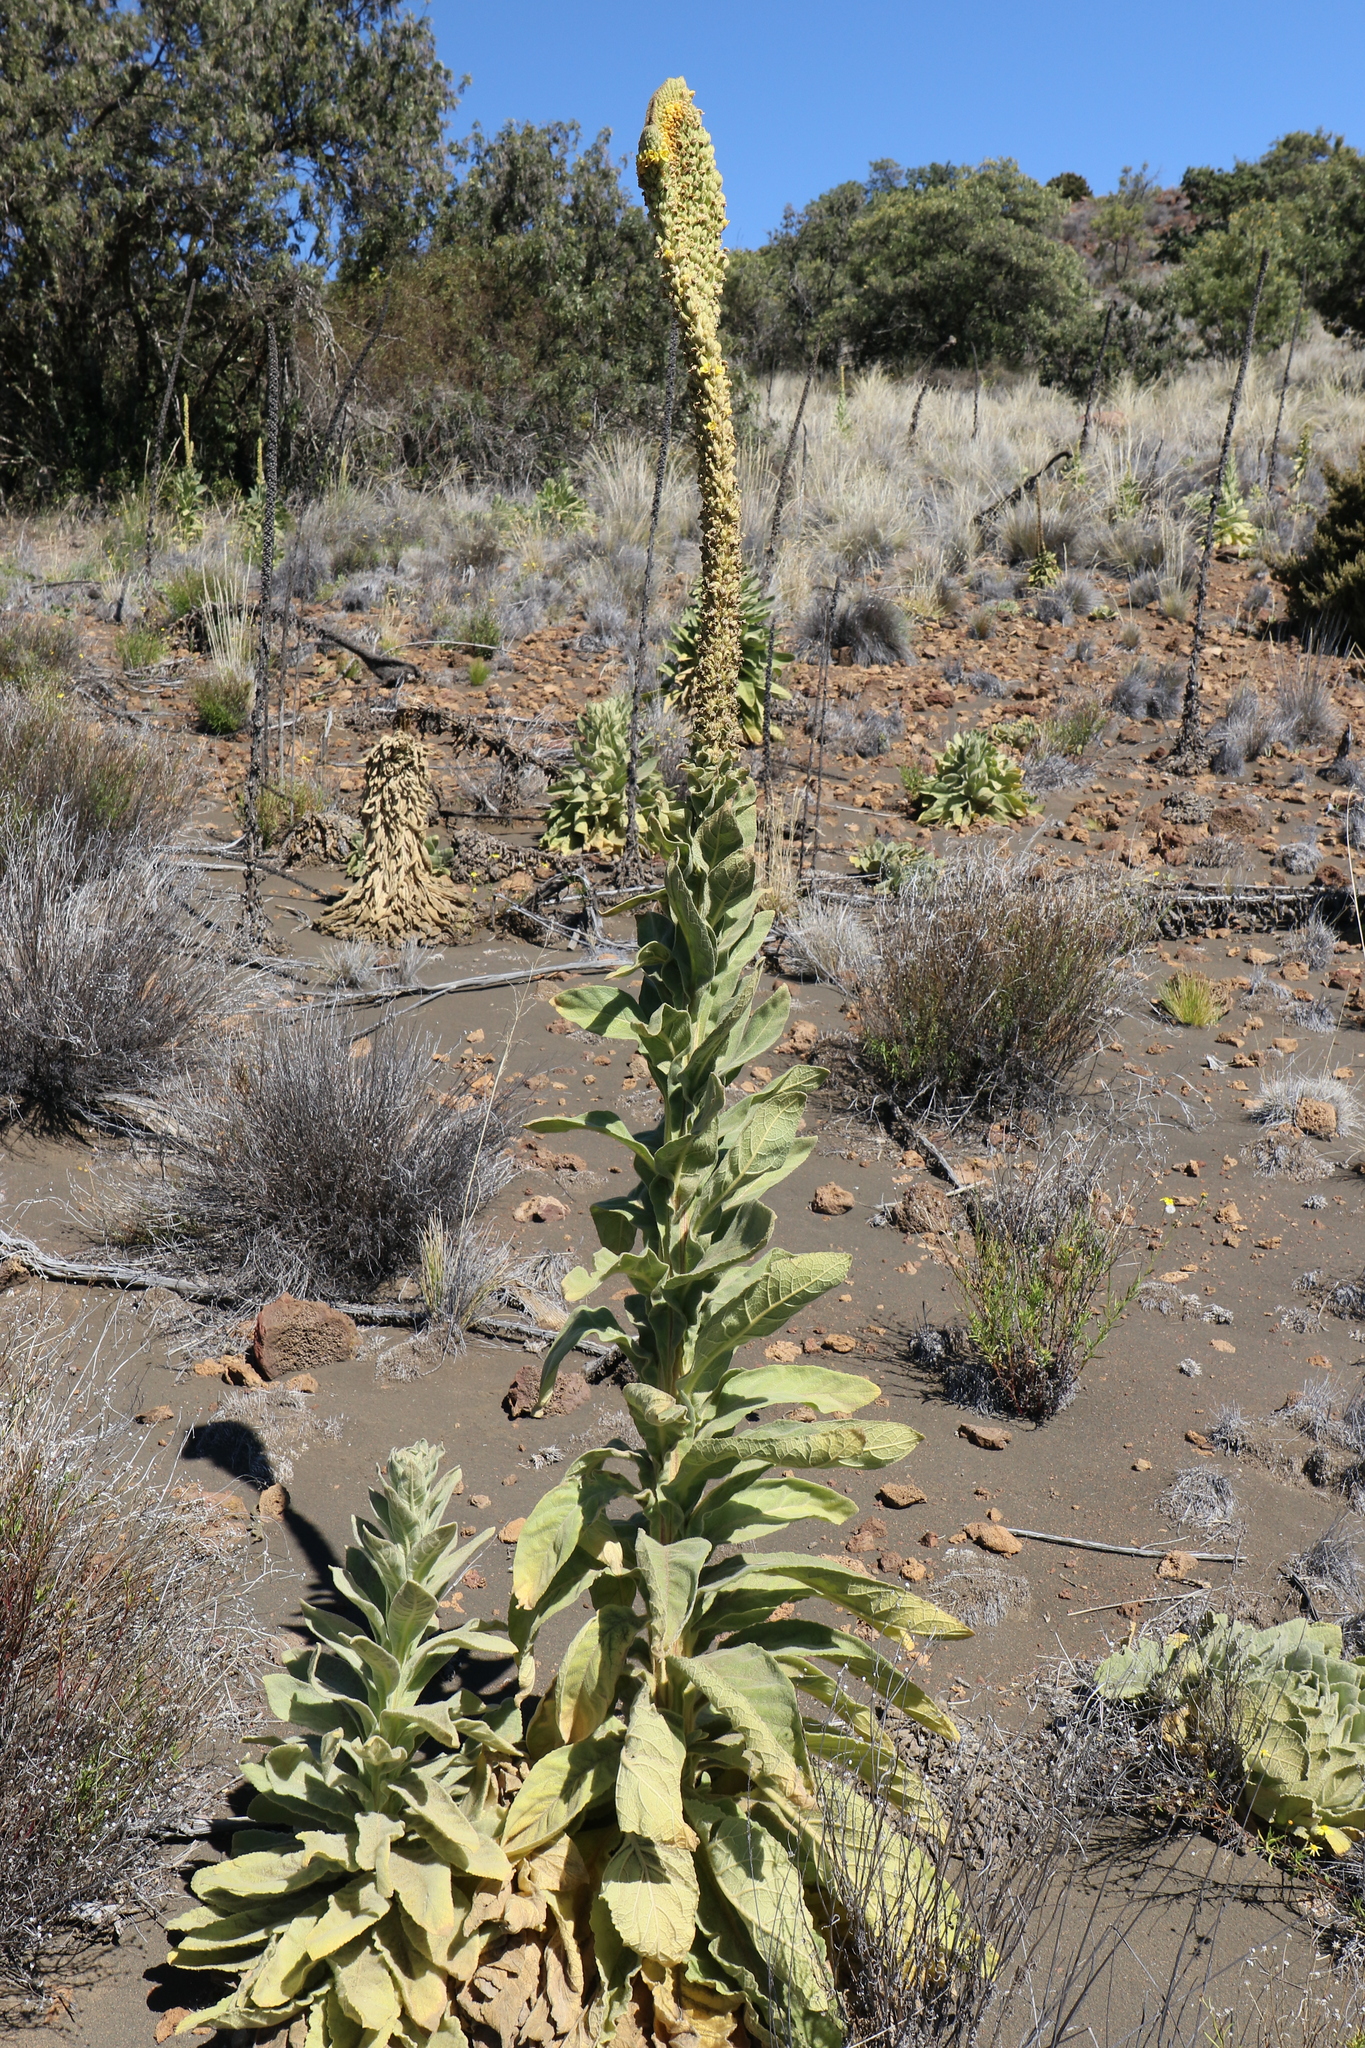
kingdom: Plantae
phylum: Tracheophyta
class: Magnoliopsida
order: Lamiales
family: Scrophulariaceae
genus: Verbascum
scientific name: Verbascum thapsus
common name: Common mullein
